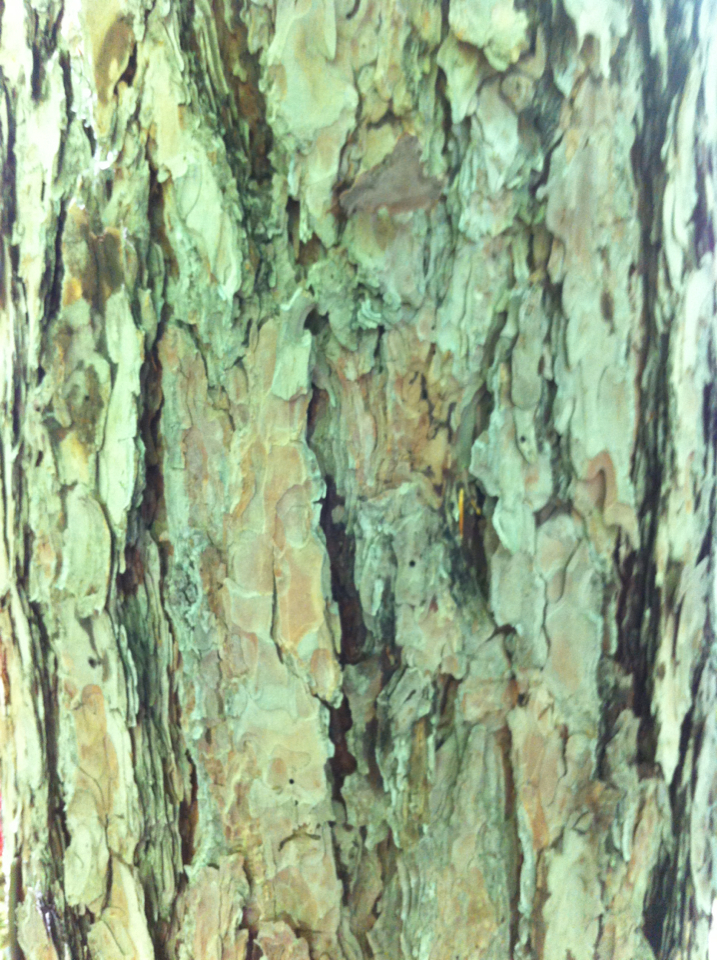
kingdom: Plantae
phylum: Tracheophyta
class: Pinopsida
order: Pinales
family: Pinaceae
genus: Pinus
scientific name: Pinus resinosa
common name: Norway pine
